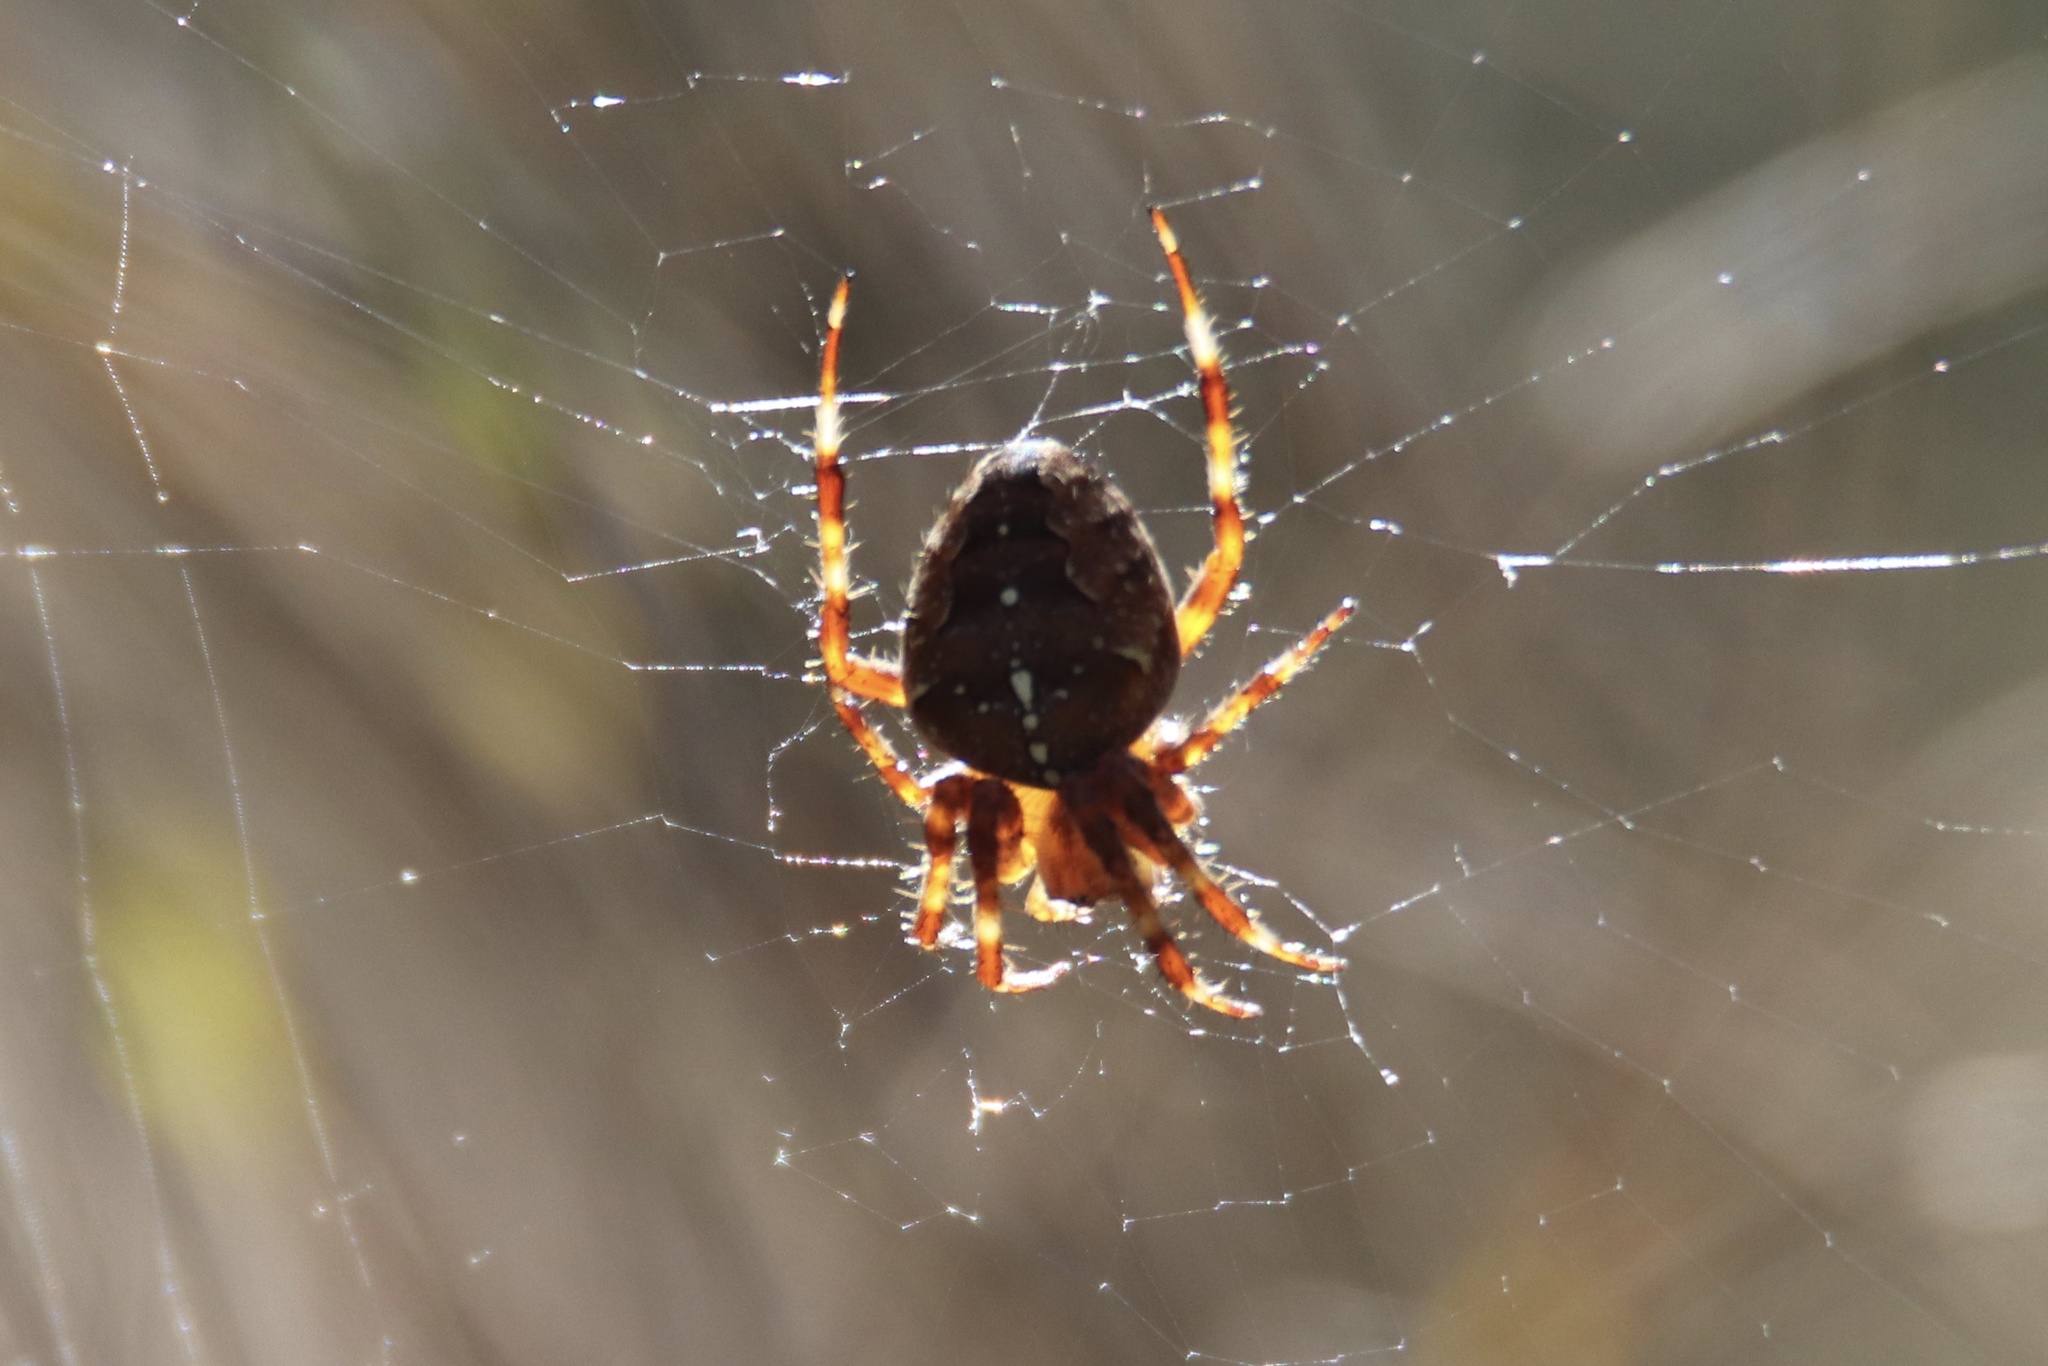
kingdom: Animalia
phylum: Arthropoda
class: Arachnida
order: Araneae
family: Araneidae
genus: Araneus
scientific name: Araneus diadematus
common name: Cross orbweaver
